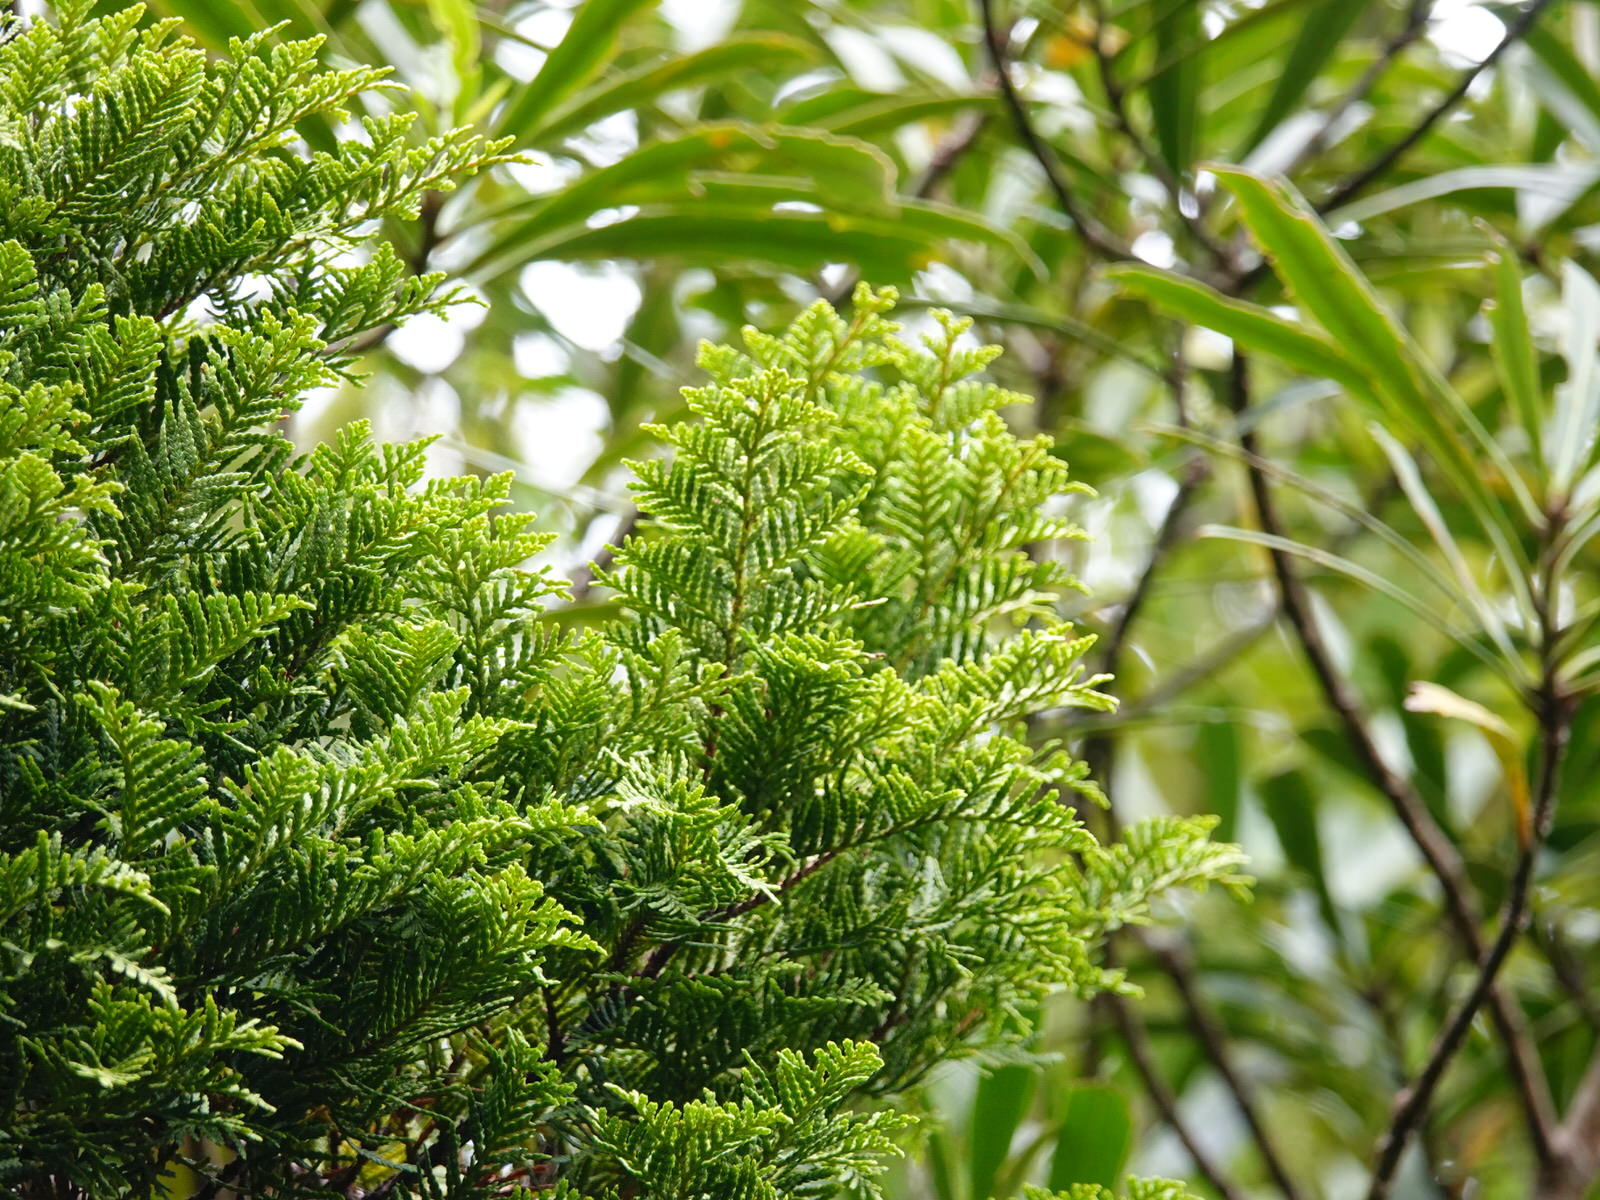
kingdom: Plantae
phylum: Tracheophyta
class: Pinopsida
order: Pinales
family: Cupressaceae
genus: Libocedrus
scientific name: Libocedrus plumosa
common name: New zealand cedar
